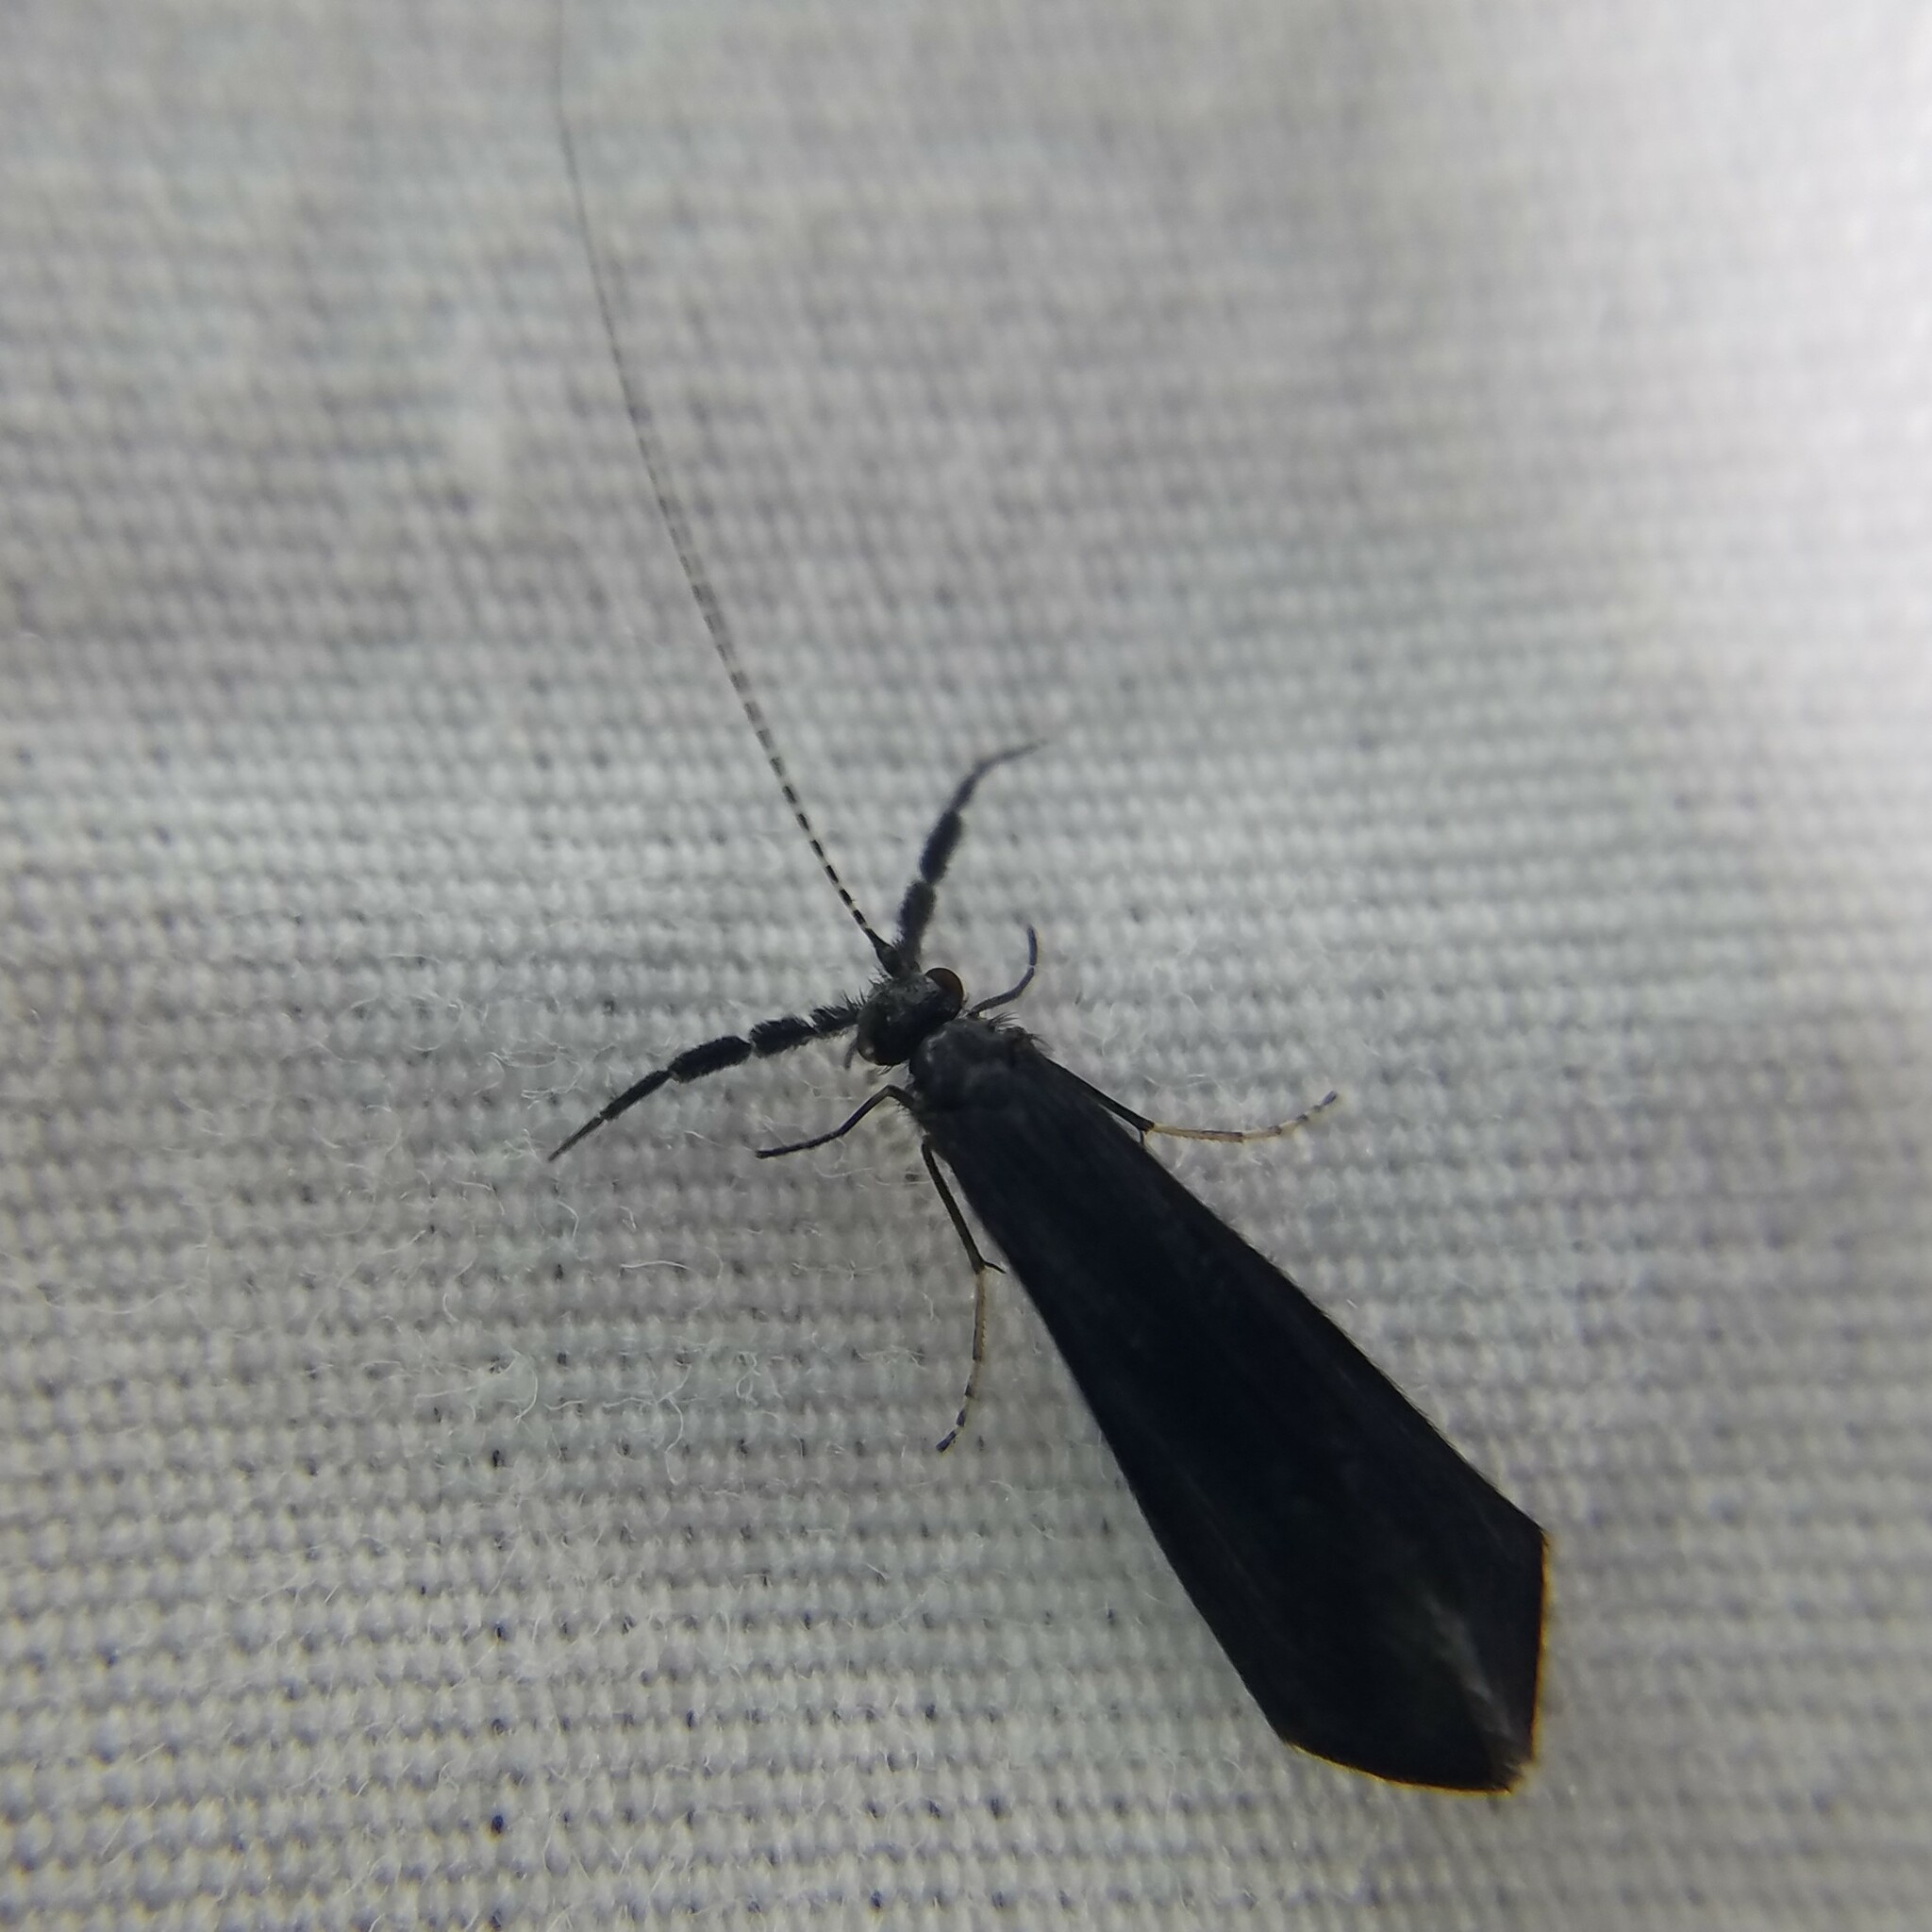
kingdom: Animalia
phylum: Arthropoda
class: Insecta
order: Trichoptera
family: Leptoceridae
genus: Mystacides
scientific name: Mystacides sepulchralis
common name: Black dancer caddisfly
